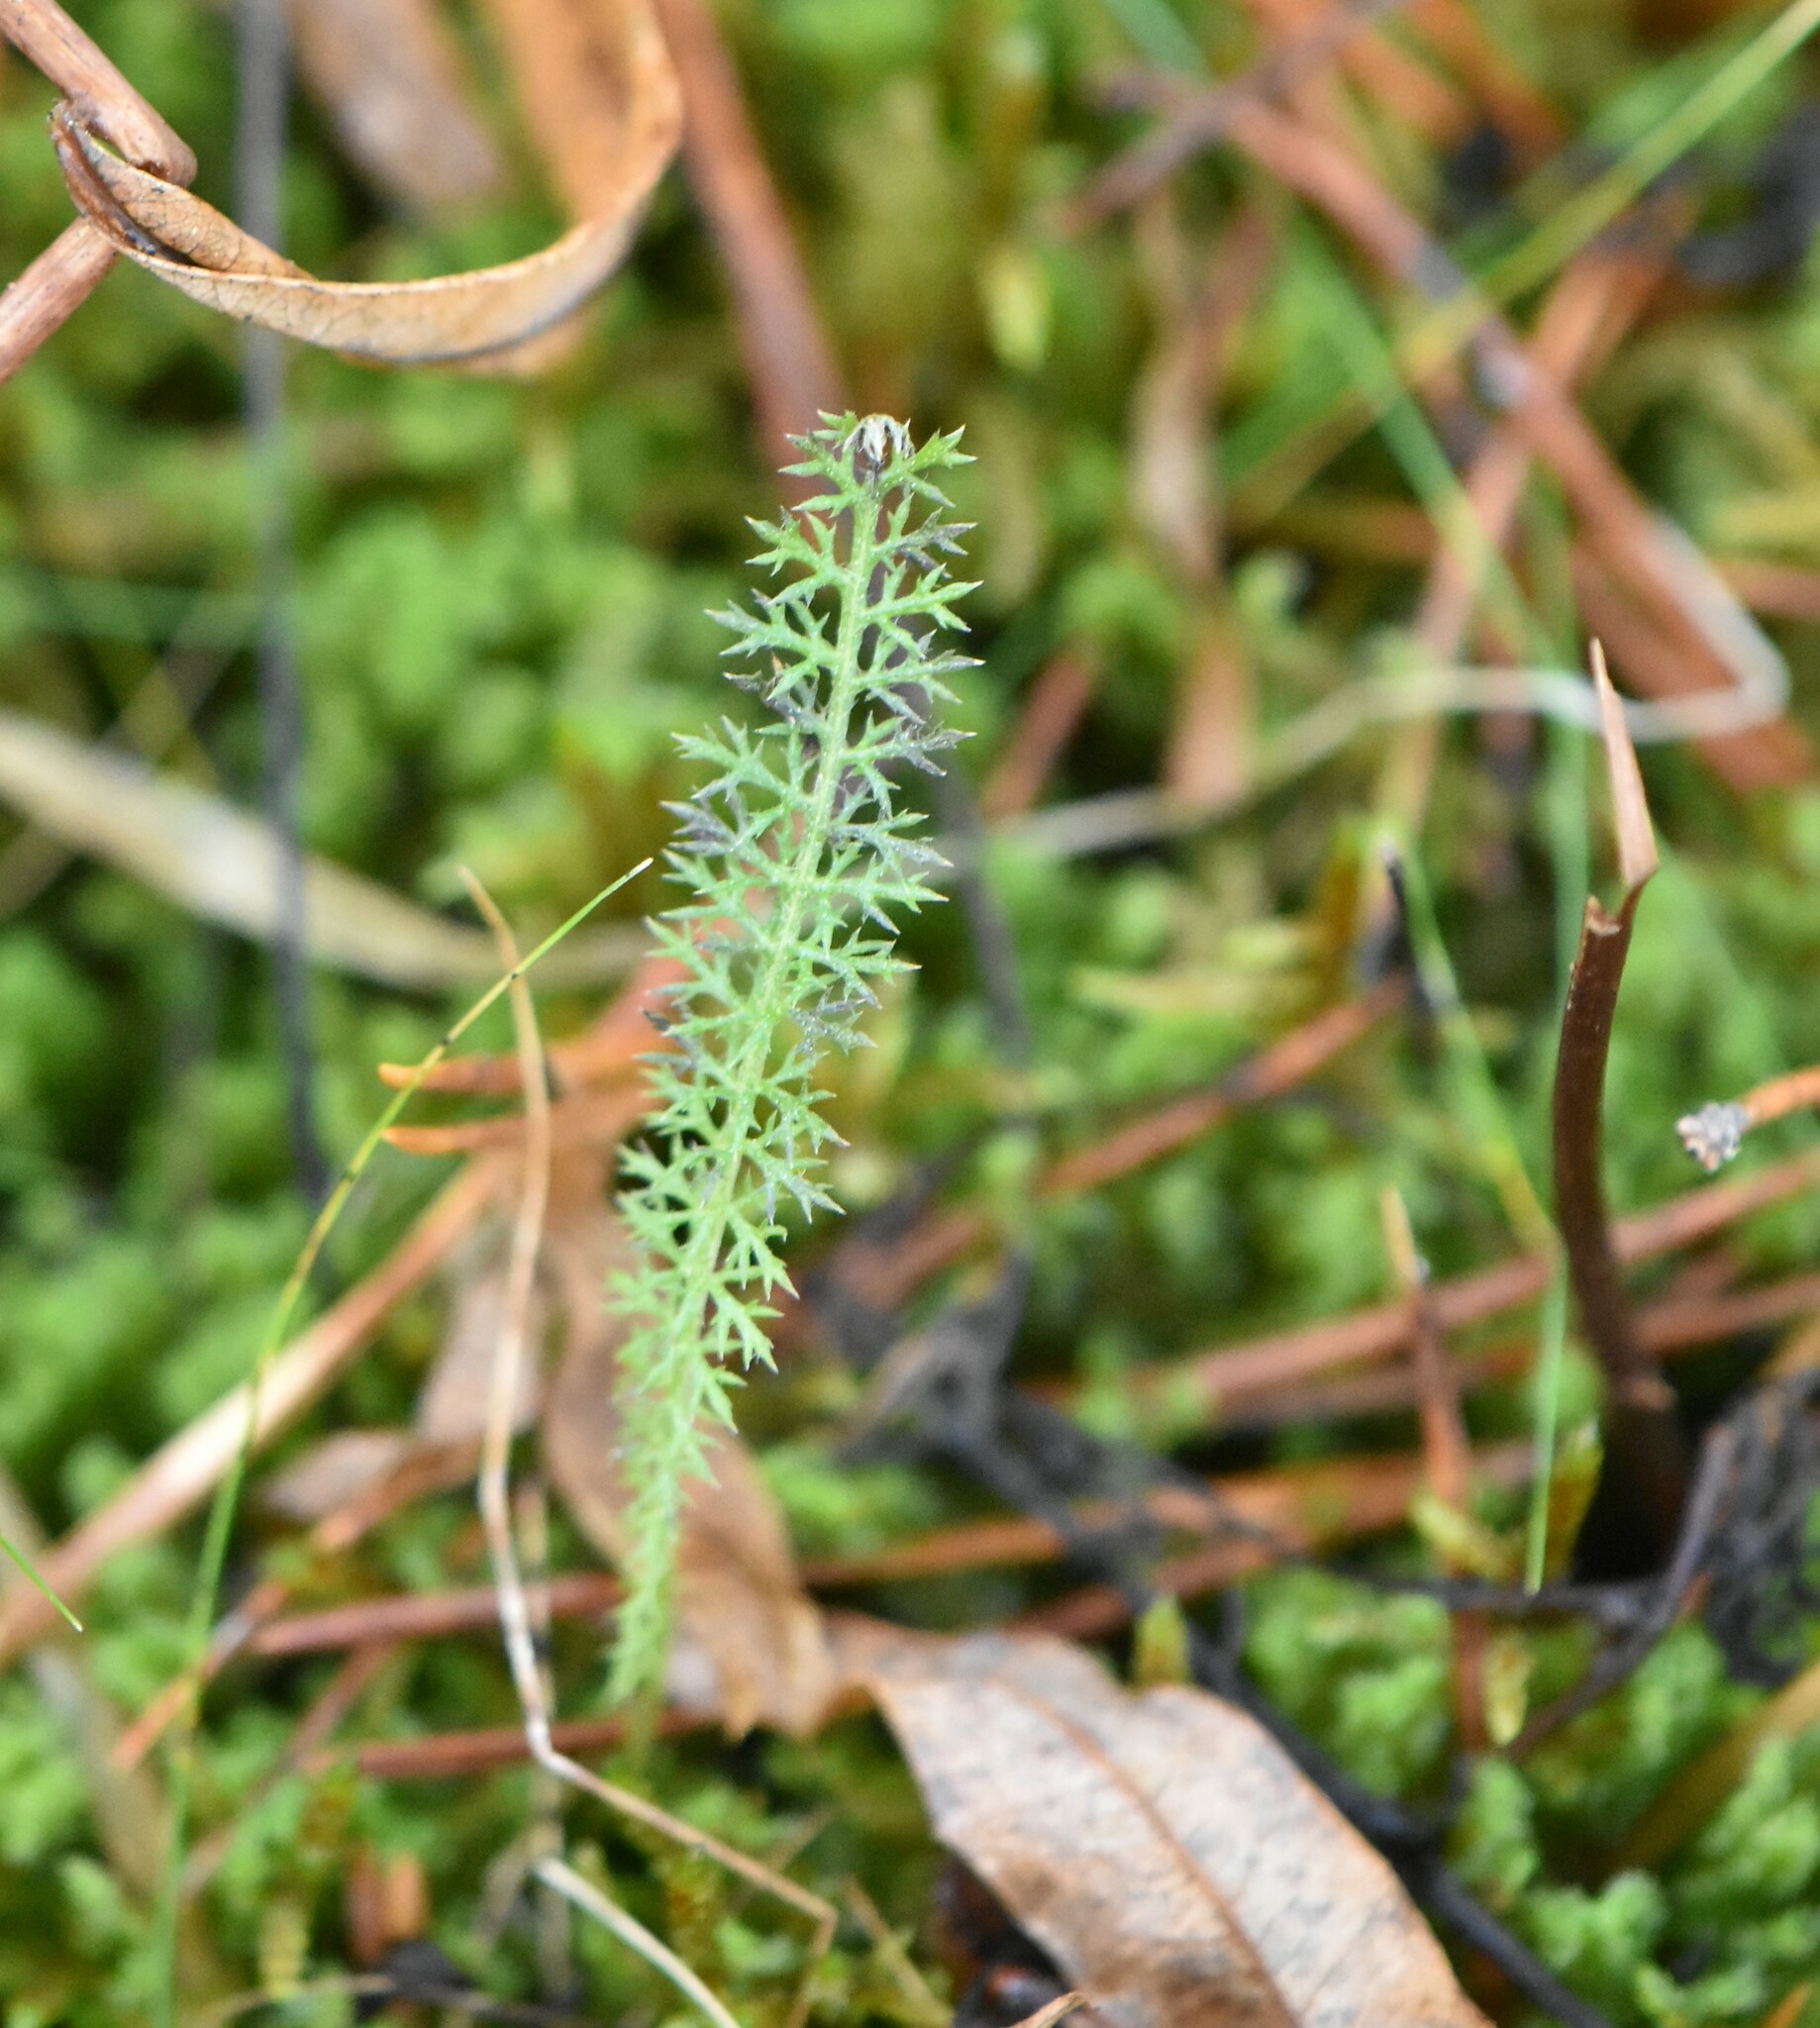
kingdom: Plantae
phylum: Tracheophyta
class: Magnoliopsida
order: Asterales
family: Asteraceae
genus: Achillea
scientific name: Achillea millefolium
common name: Yarrow
